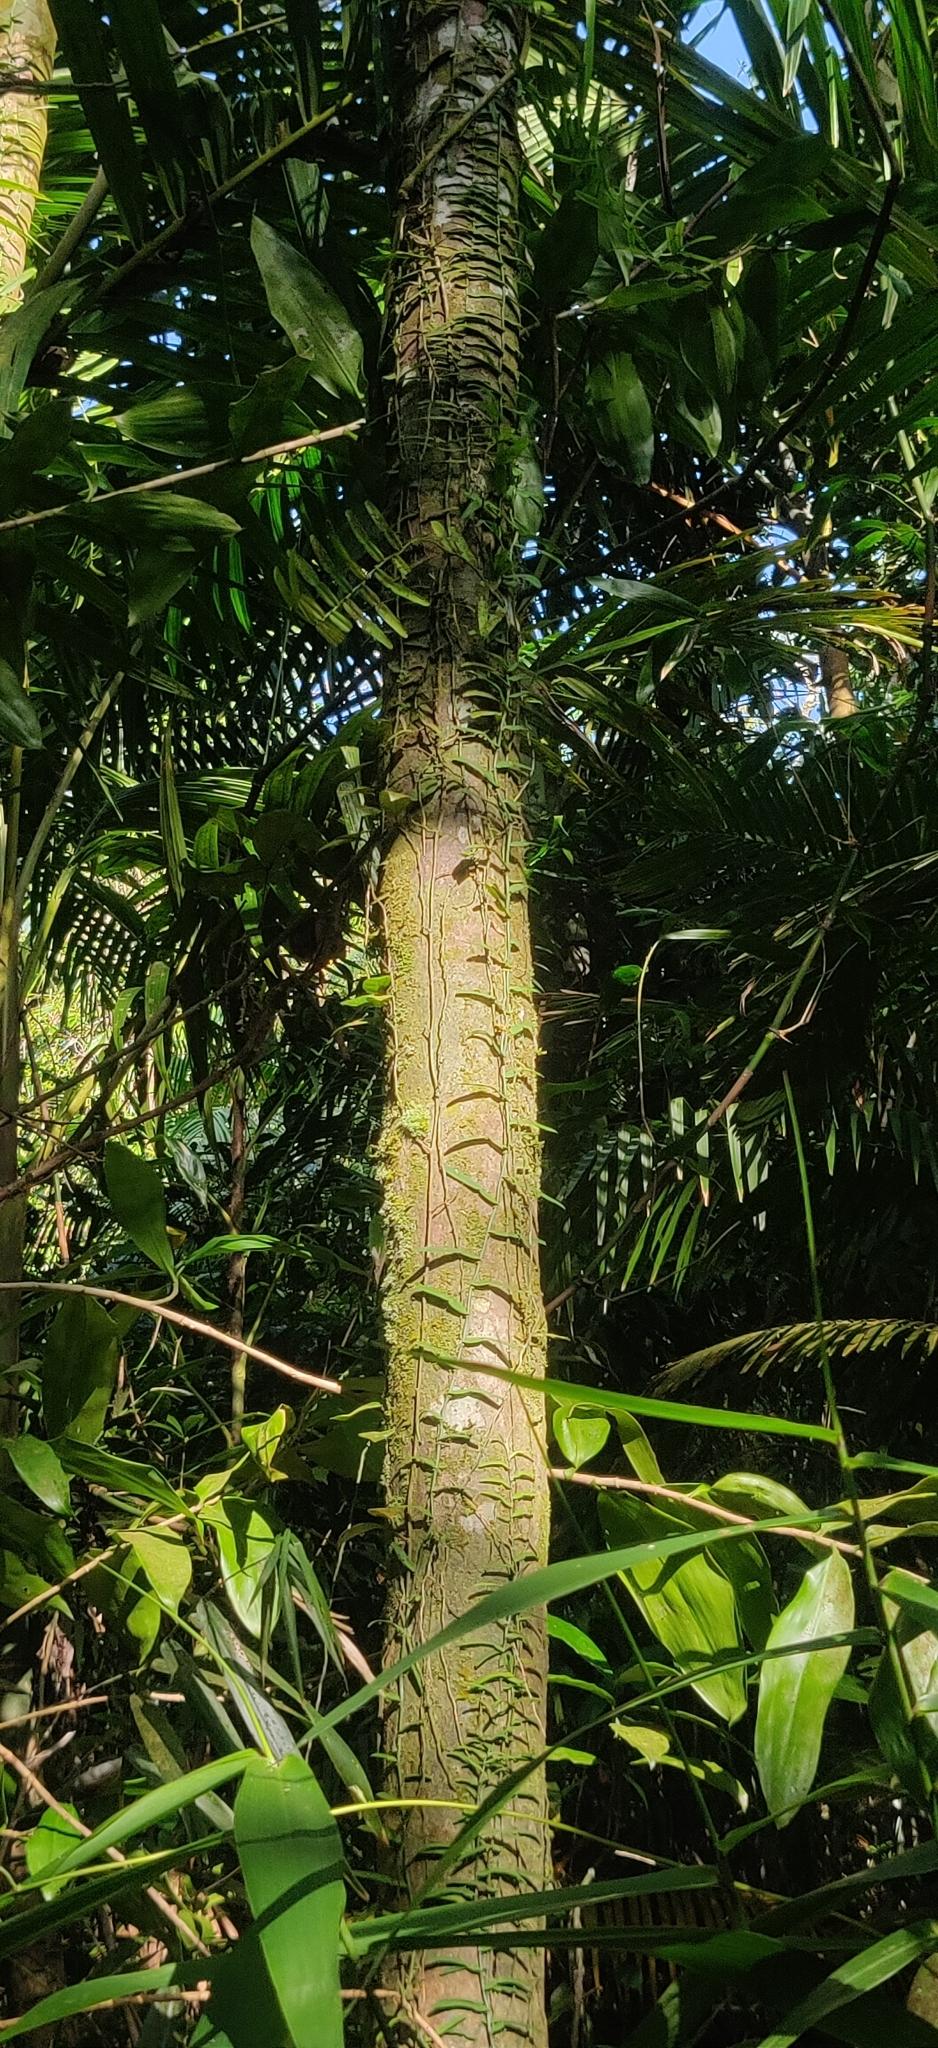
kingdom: Plantae
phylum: Tracheophyta
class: Liliopsida
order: Arecales
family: Arecaceae
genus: Pinanga
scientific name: Pinanga andamanensis
